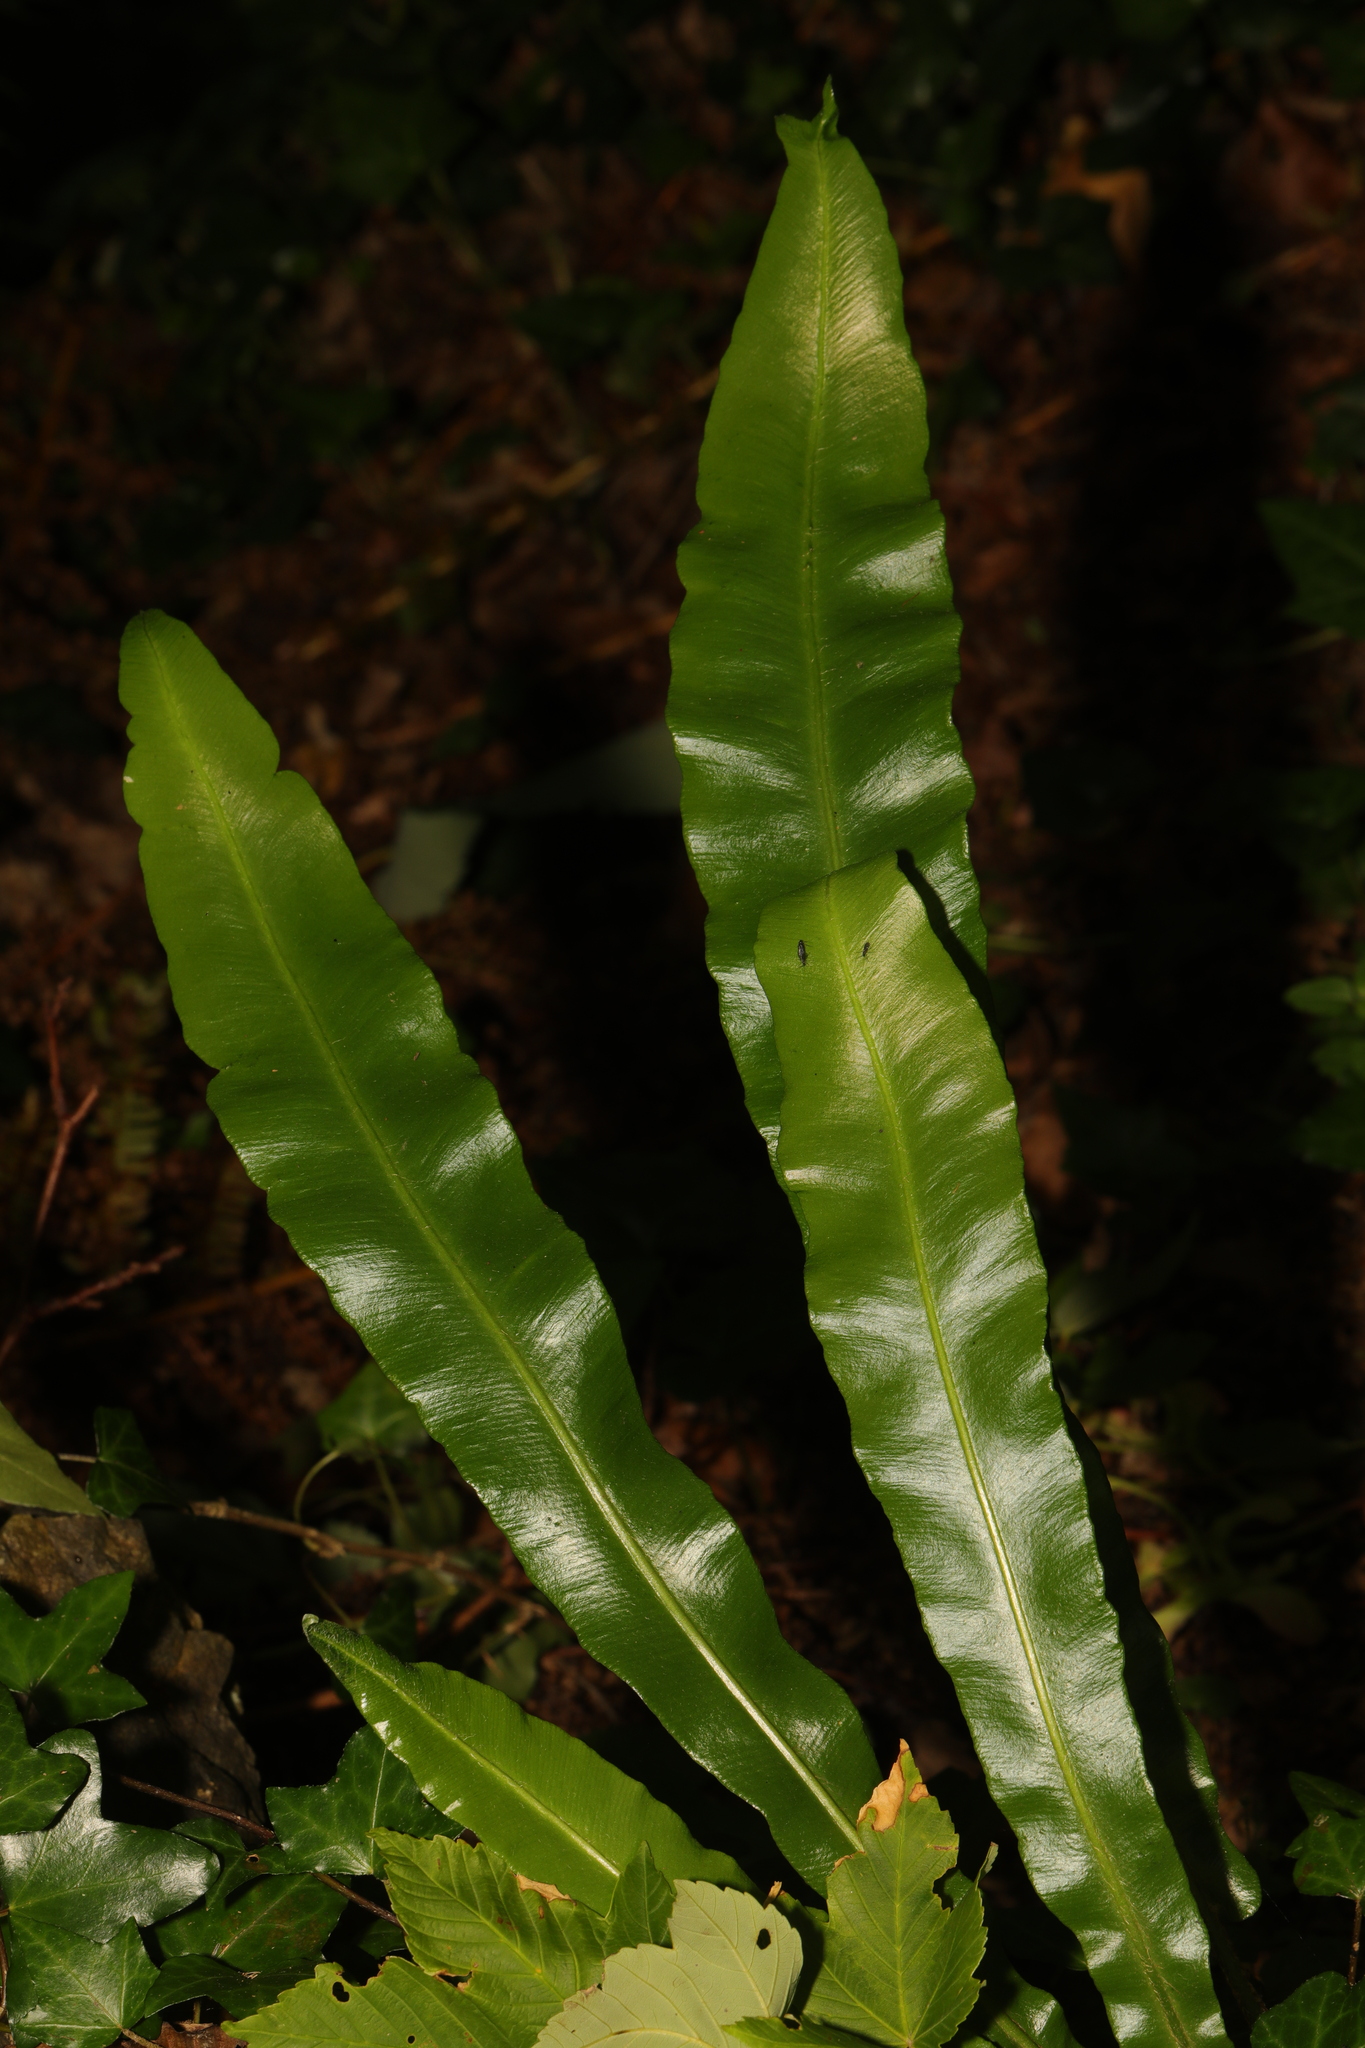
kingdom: Plantae
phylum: Tracheophyta
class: Polypodiopsida
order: Polypodiales
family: Aspleniaceae
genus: Asplenium
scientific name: Asplenium scolopendrium
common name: Hart's-tongue fern
